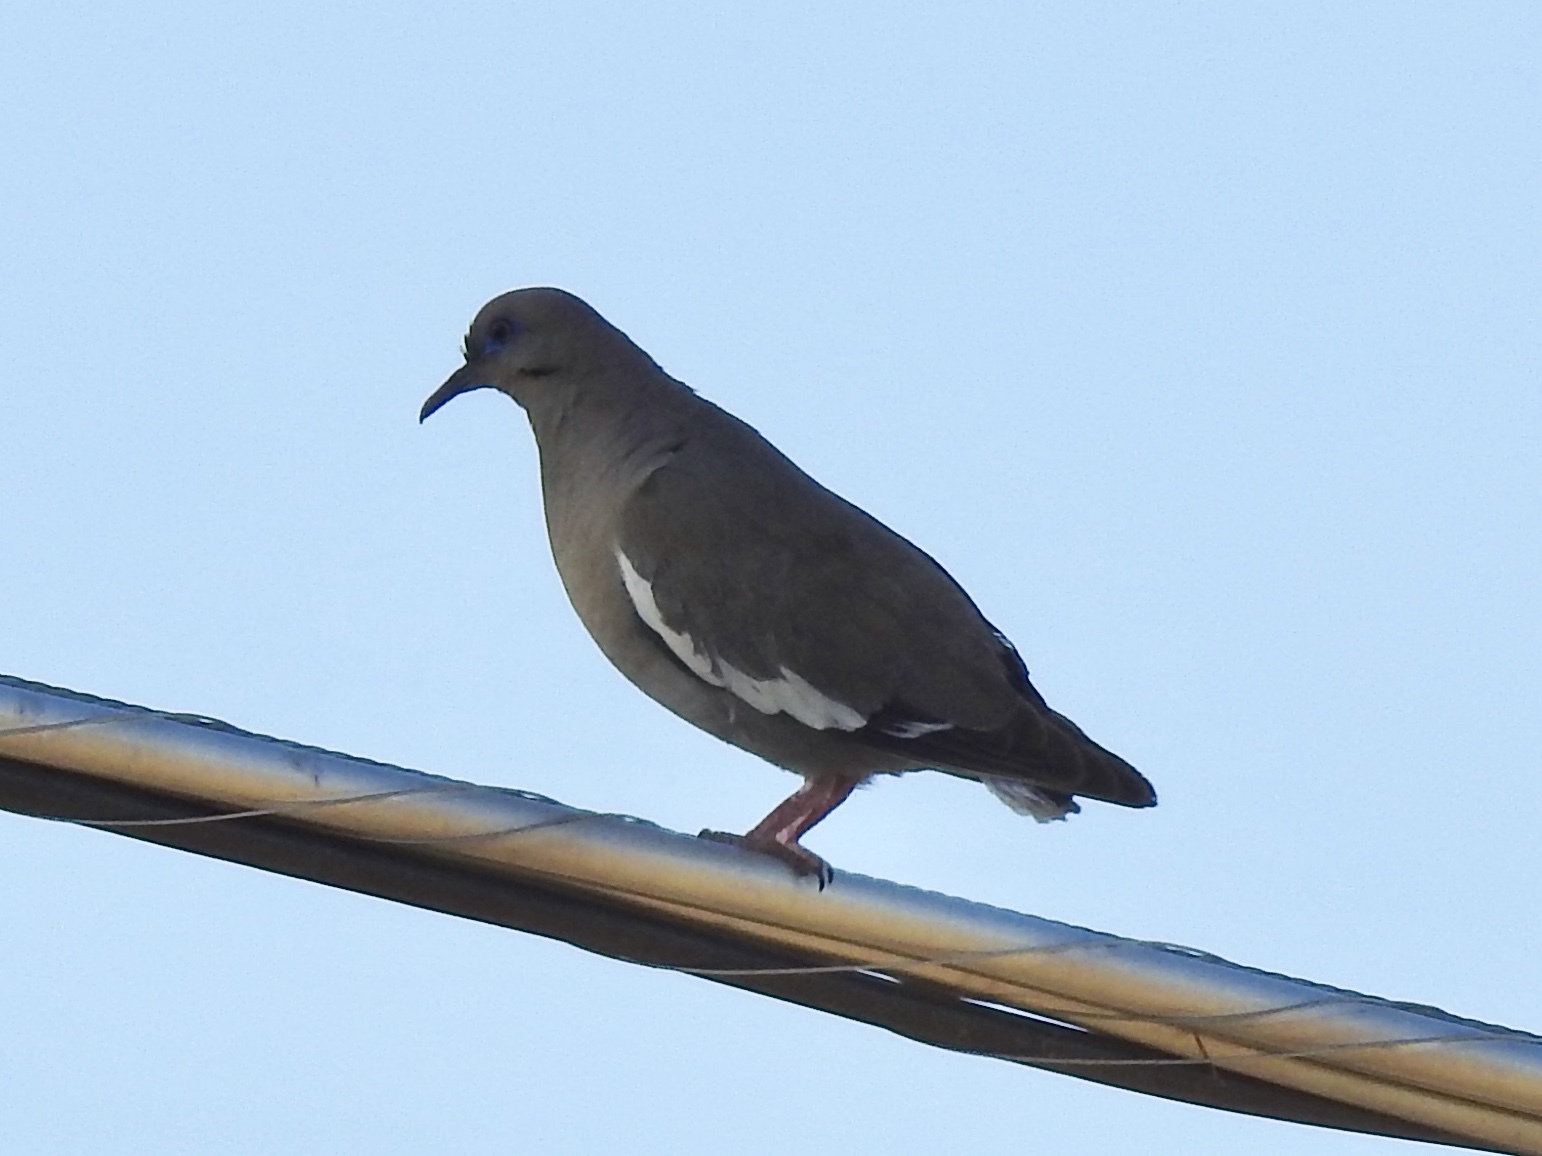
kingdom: Animalia
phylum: Chordata
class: Aves
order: Columbiformes
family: Columbidae
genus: Zenaida
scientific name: Zenaida asiatica
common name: White-winged dove
